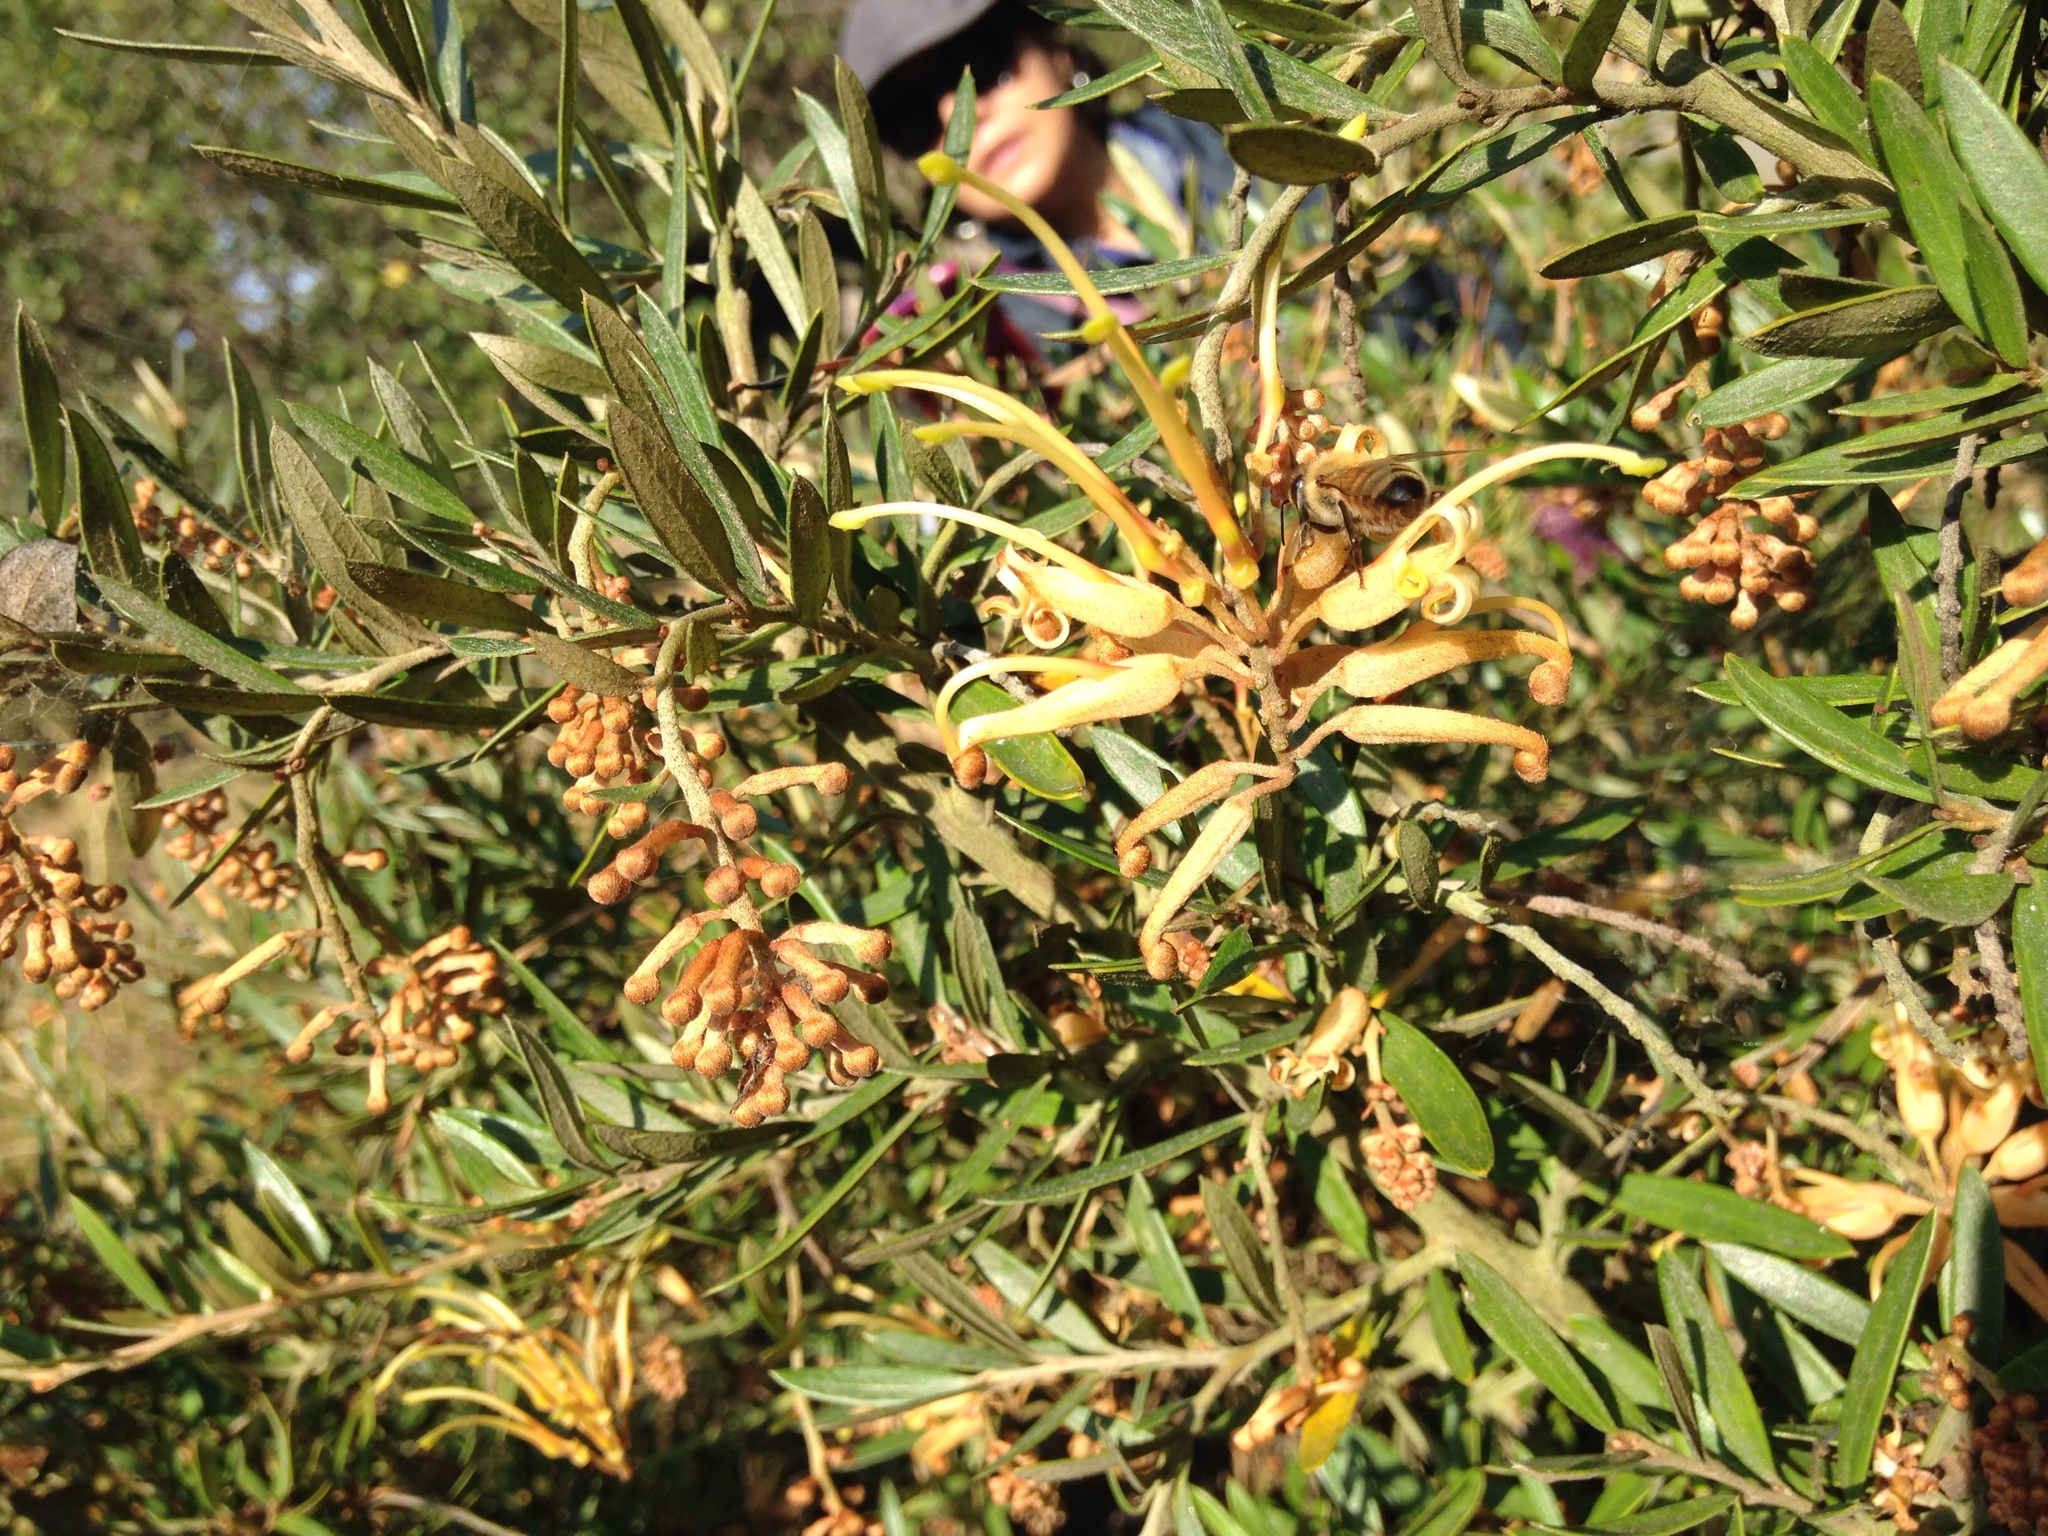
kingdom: Animalia
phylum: Arthropoda
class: Insecta
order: Hymenoptera
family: Apidae
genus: Apis
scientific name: Apis mellifera
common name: Honey bee
